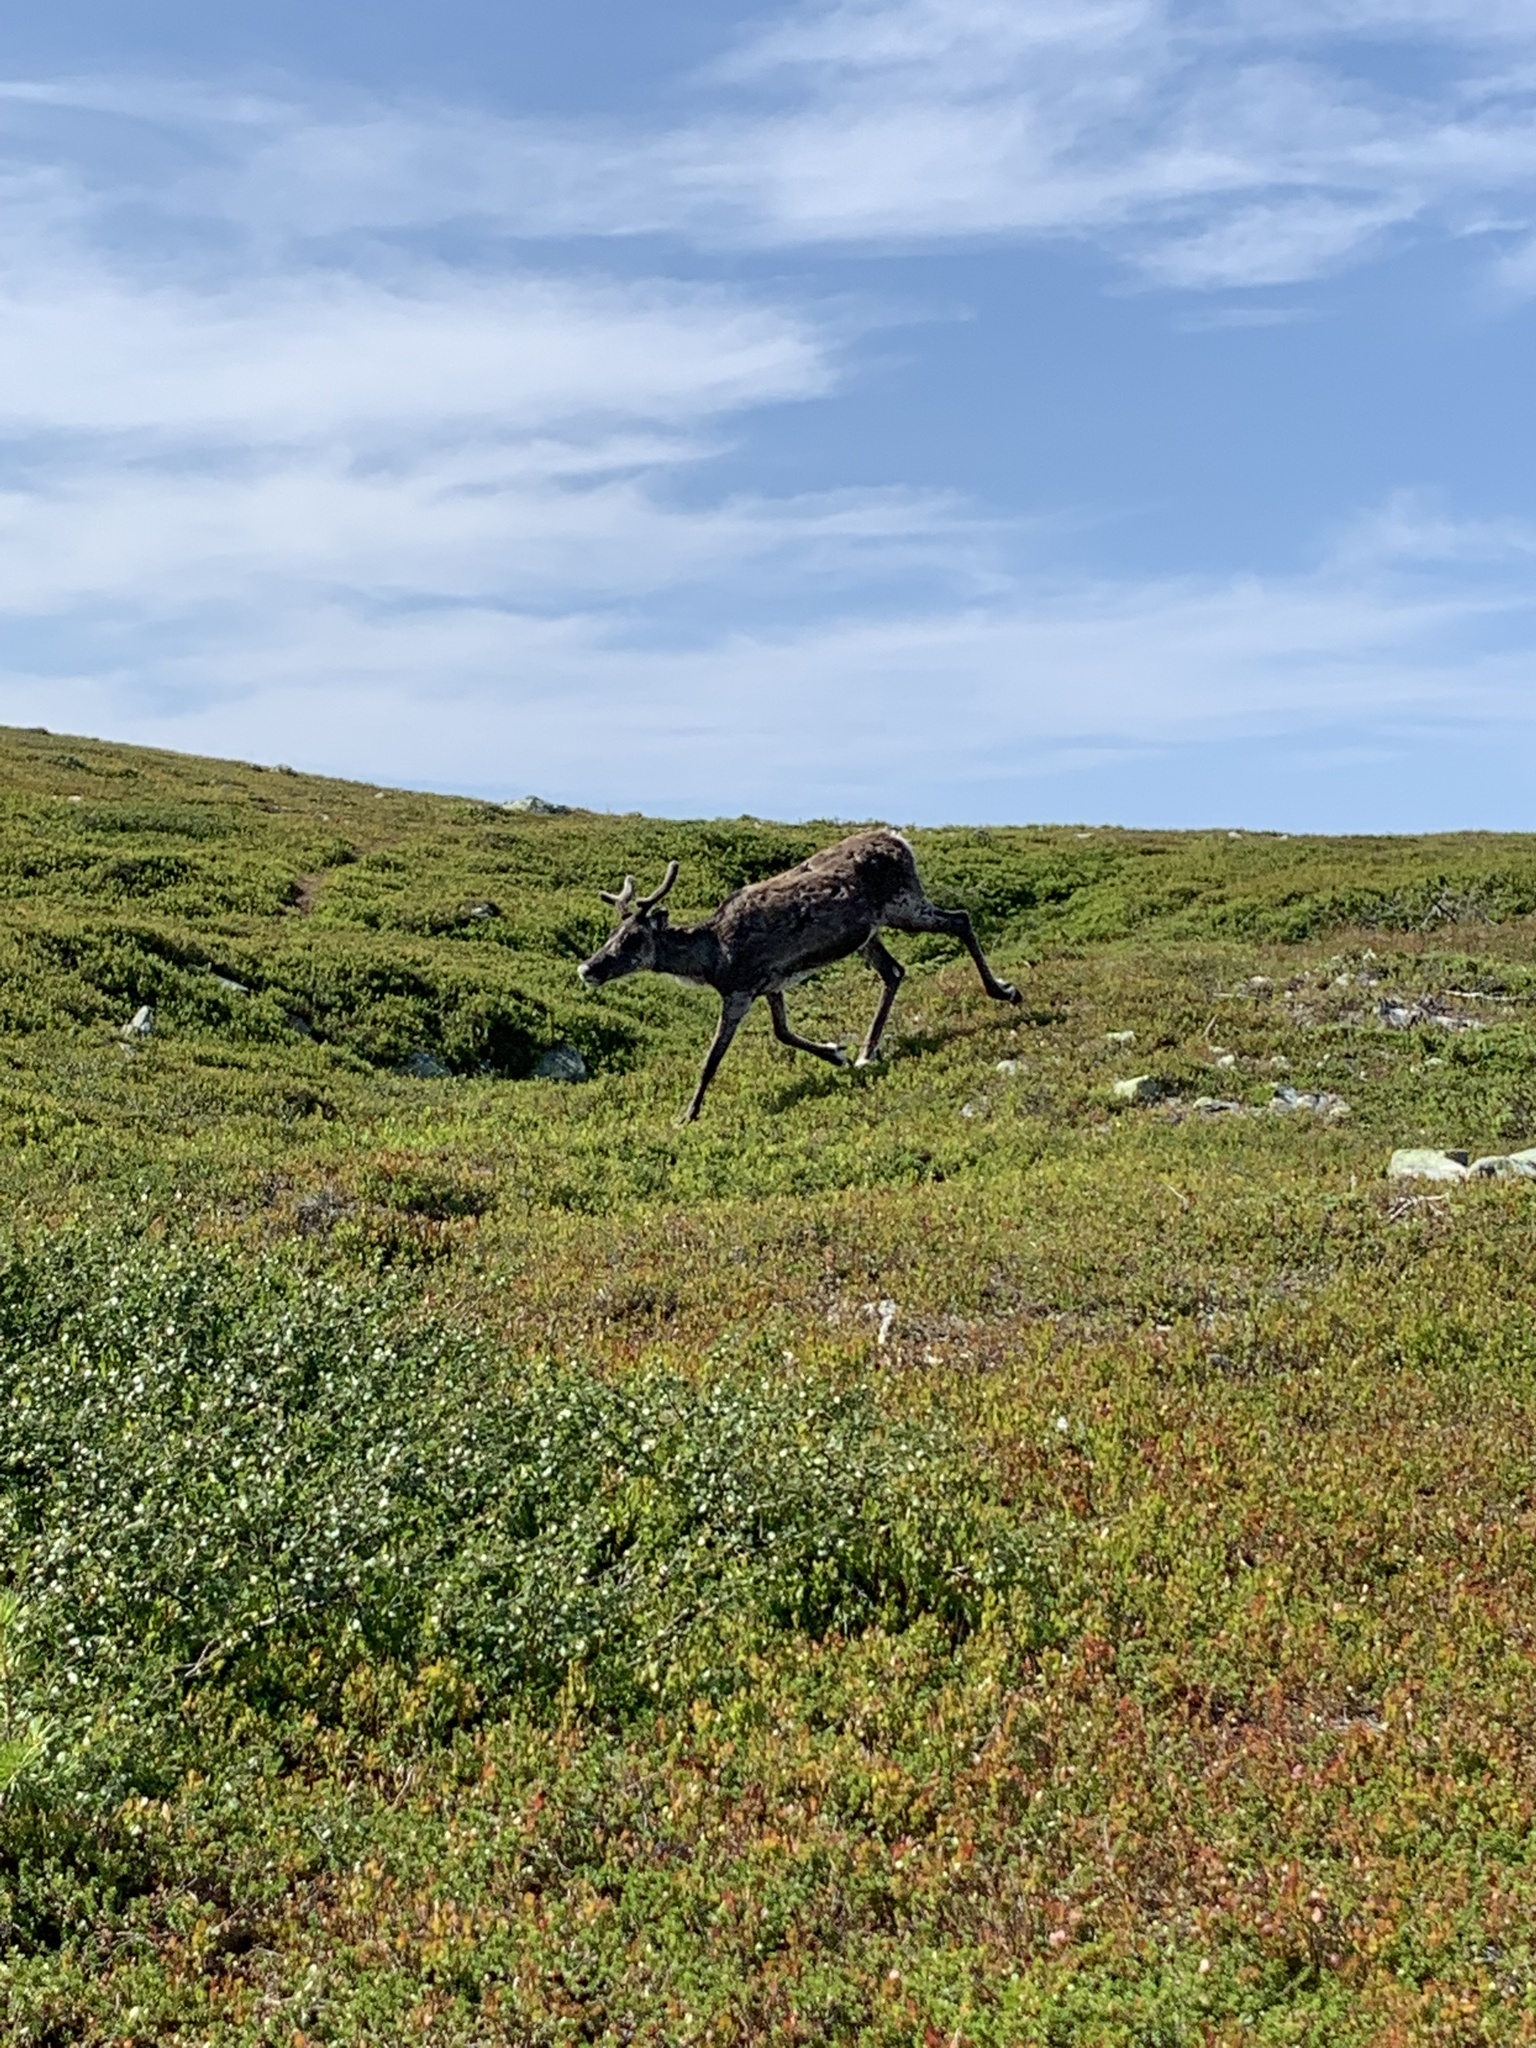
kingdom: Animalia
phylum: Chordata
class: Mammalia
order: Artiodactyla
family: Cervidae
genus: Rangifer
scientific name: Rangifer tarandus
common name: Reindeer
